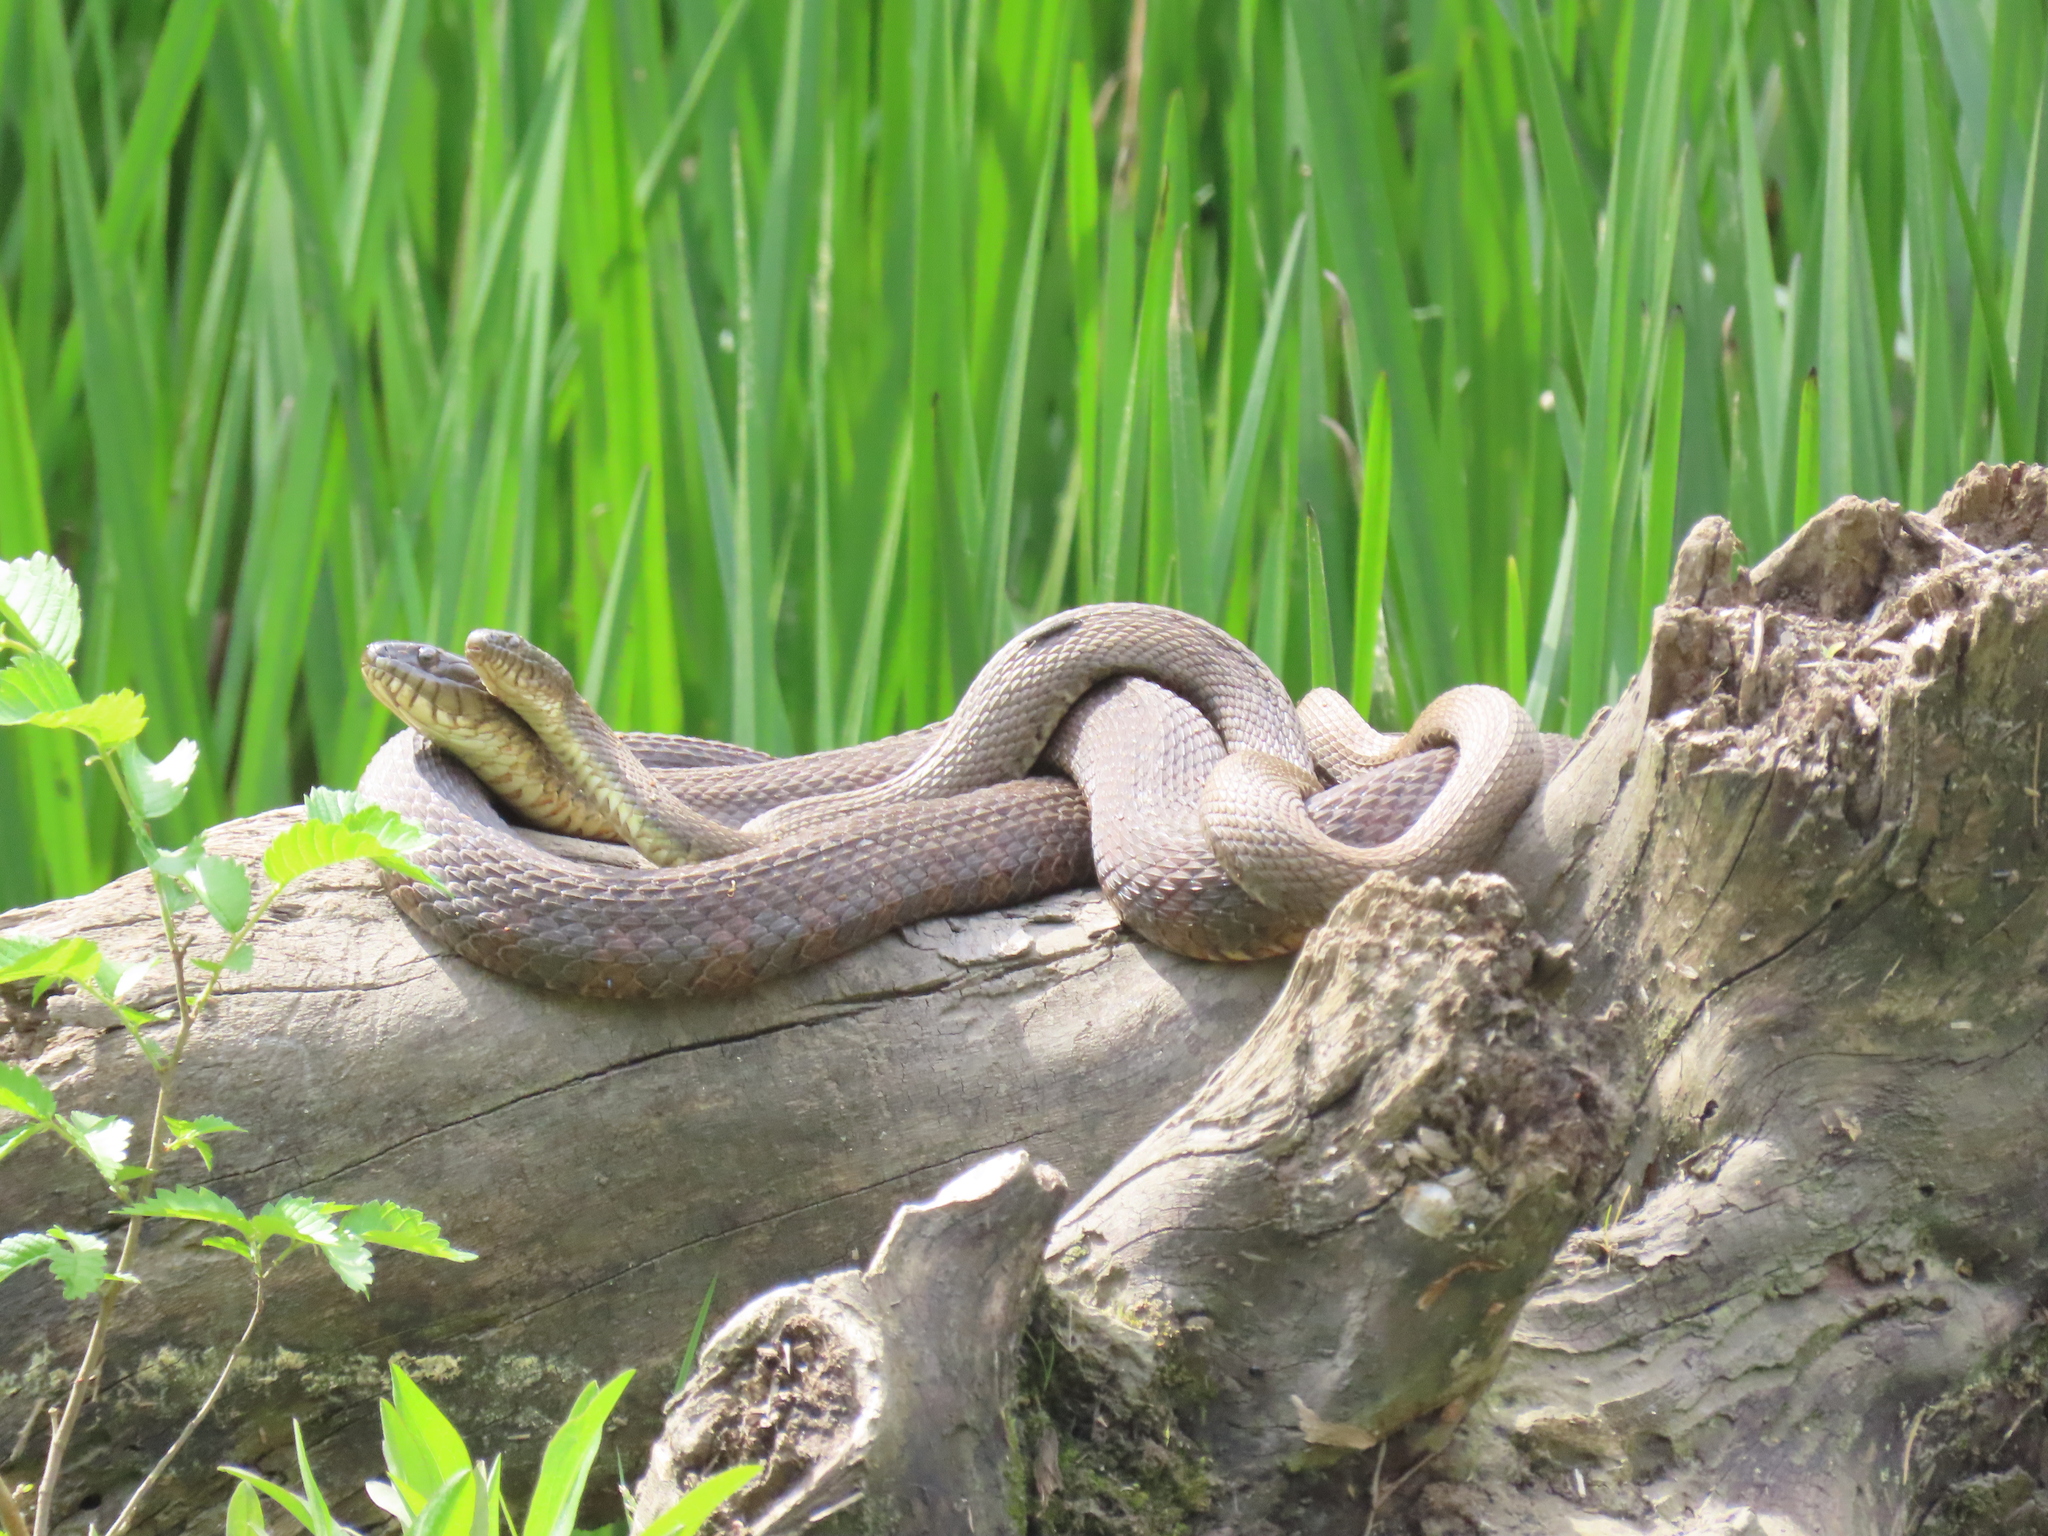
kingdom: Animalia
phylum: Chordata
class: Squamata
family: Colubridae
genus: Nerodia
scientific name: Nerodia sipedon
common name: Northern water snake
